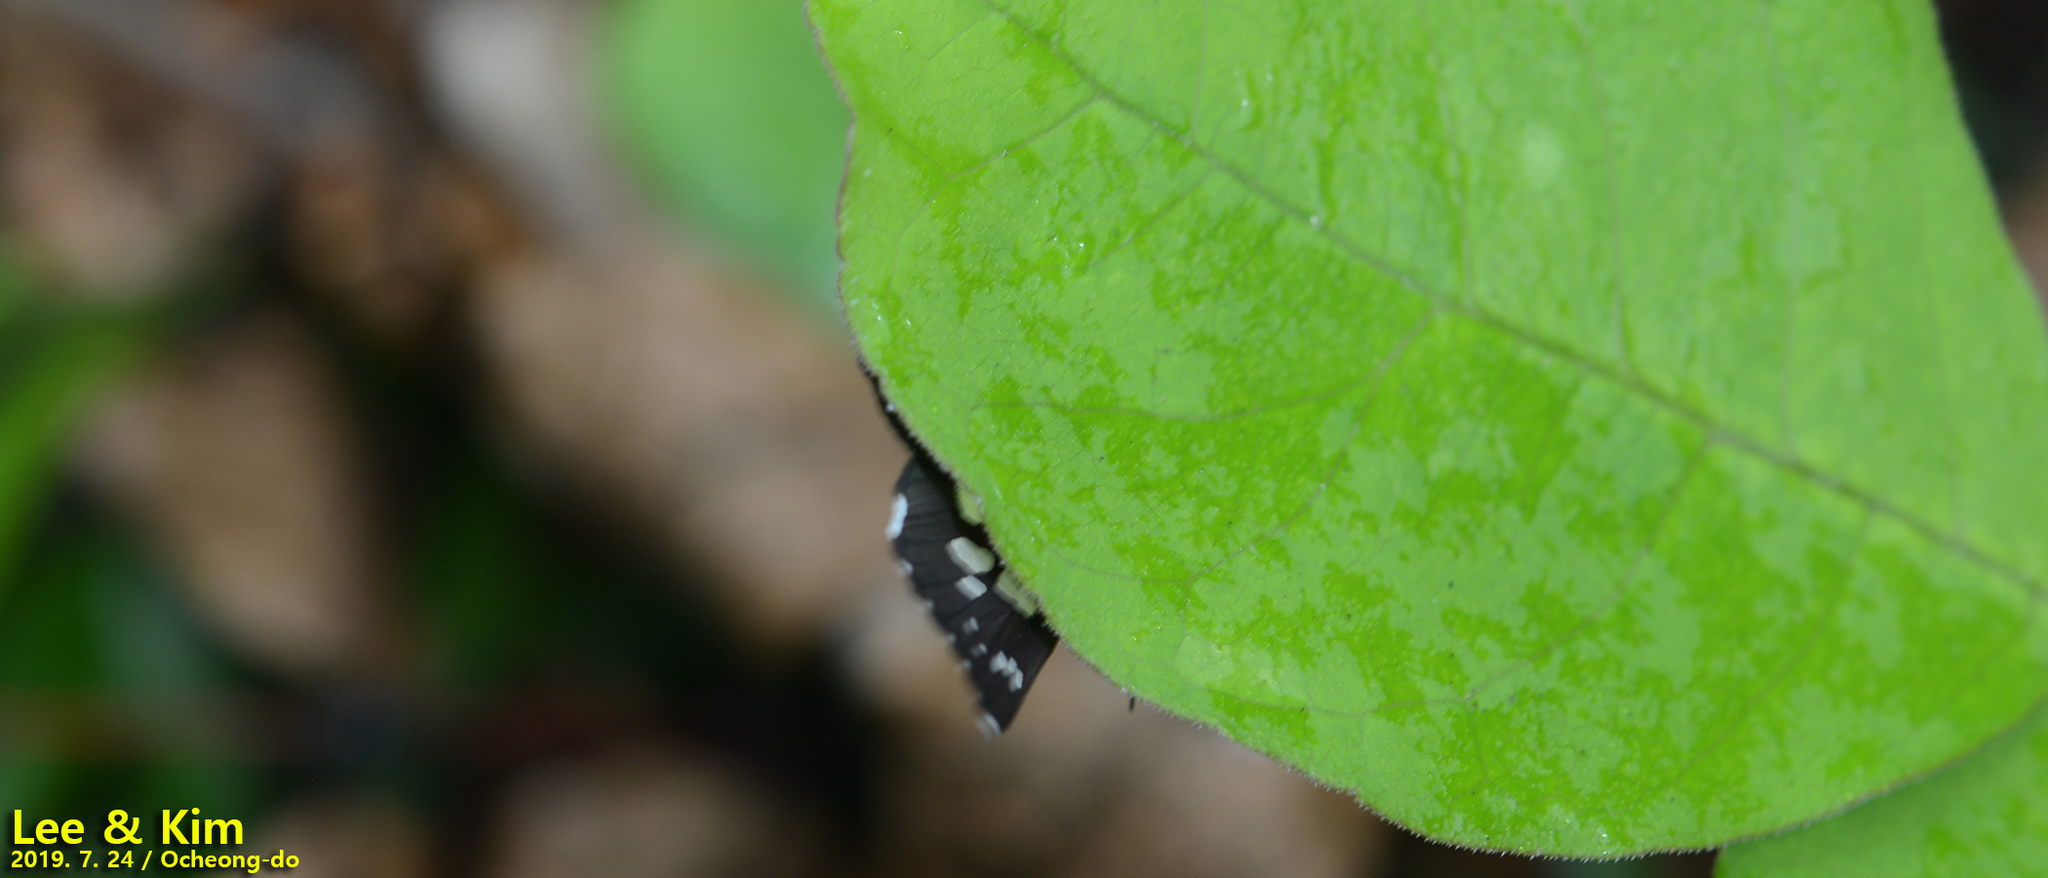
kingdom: Animalia
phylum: Arthropoda
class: Insecta
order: Lepidoptera
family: Hesperiidae
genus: Daimio
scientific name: Daimio tethys
